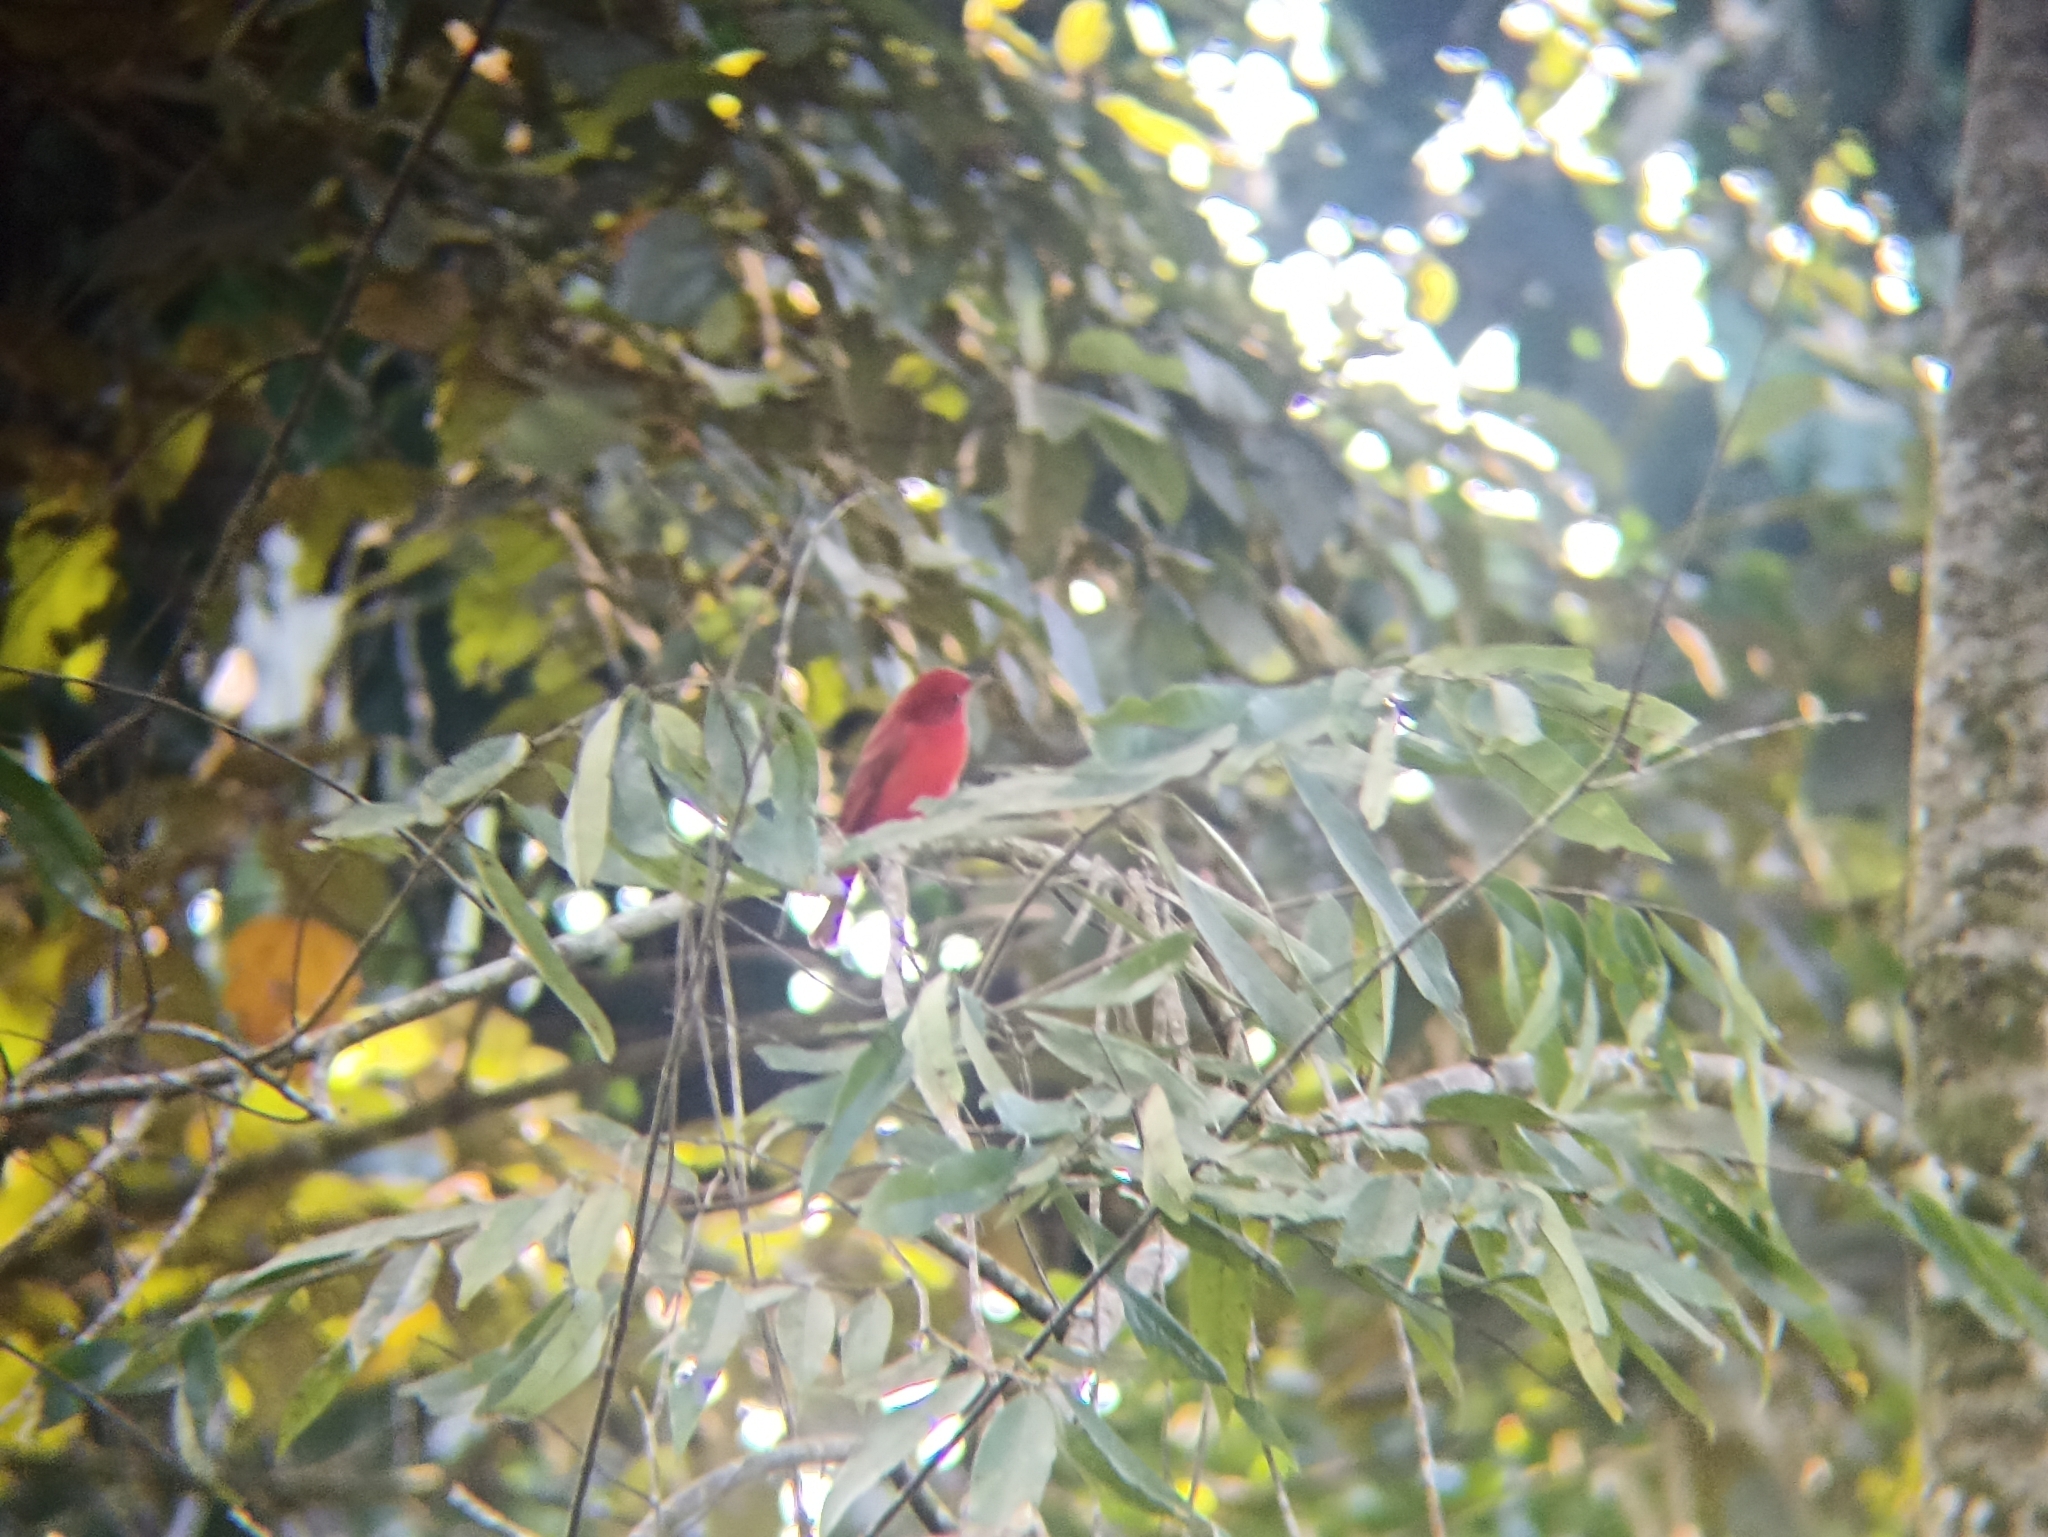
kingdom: Animalia
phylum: Chordata
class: Aves
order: Passeriformes
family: Cardinalidae
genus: Piranga
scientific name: Piranga rubra
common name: Summer tanager
